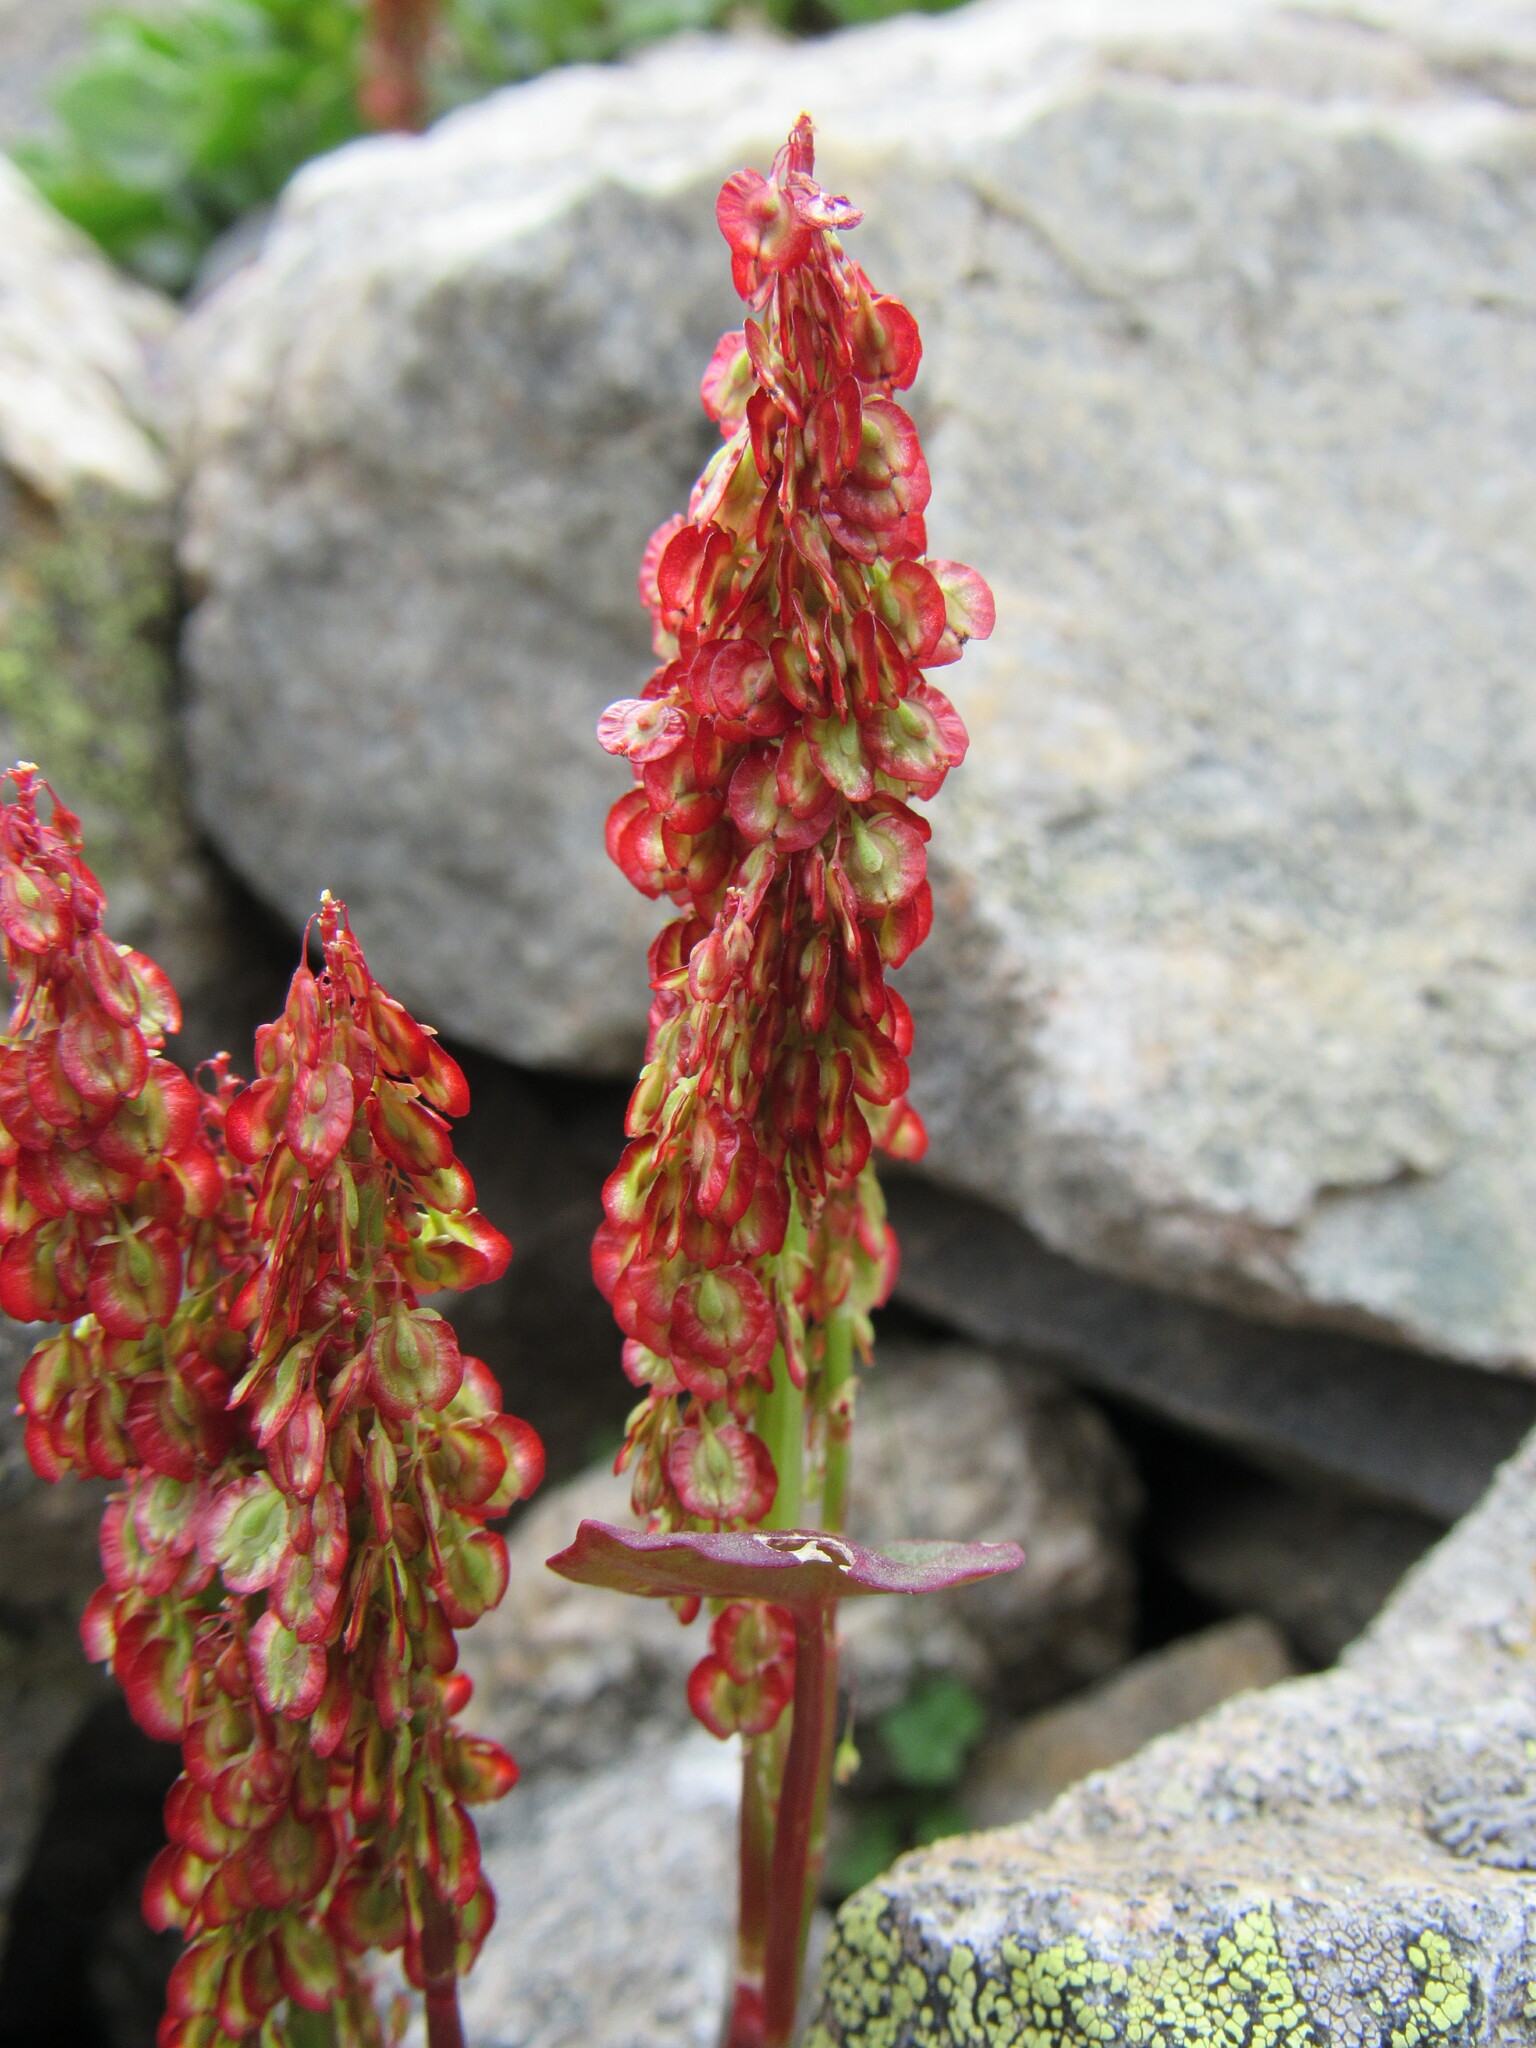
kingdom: Plantae
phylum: Tracheophyta
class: Magnoliopsida
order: Caryophyllales
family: Polygonaceae
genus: Oxyria
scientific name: Oxyria digyna
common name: Alpine mountain-sorrel
